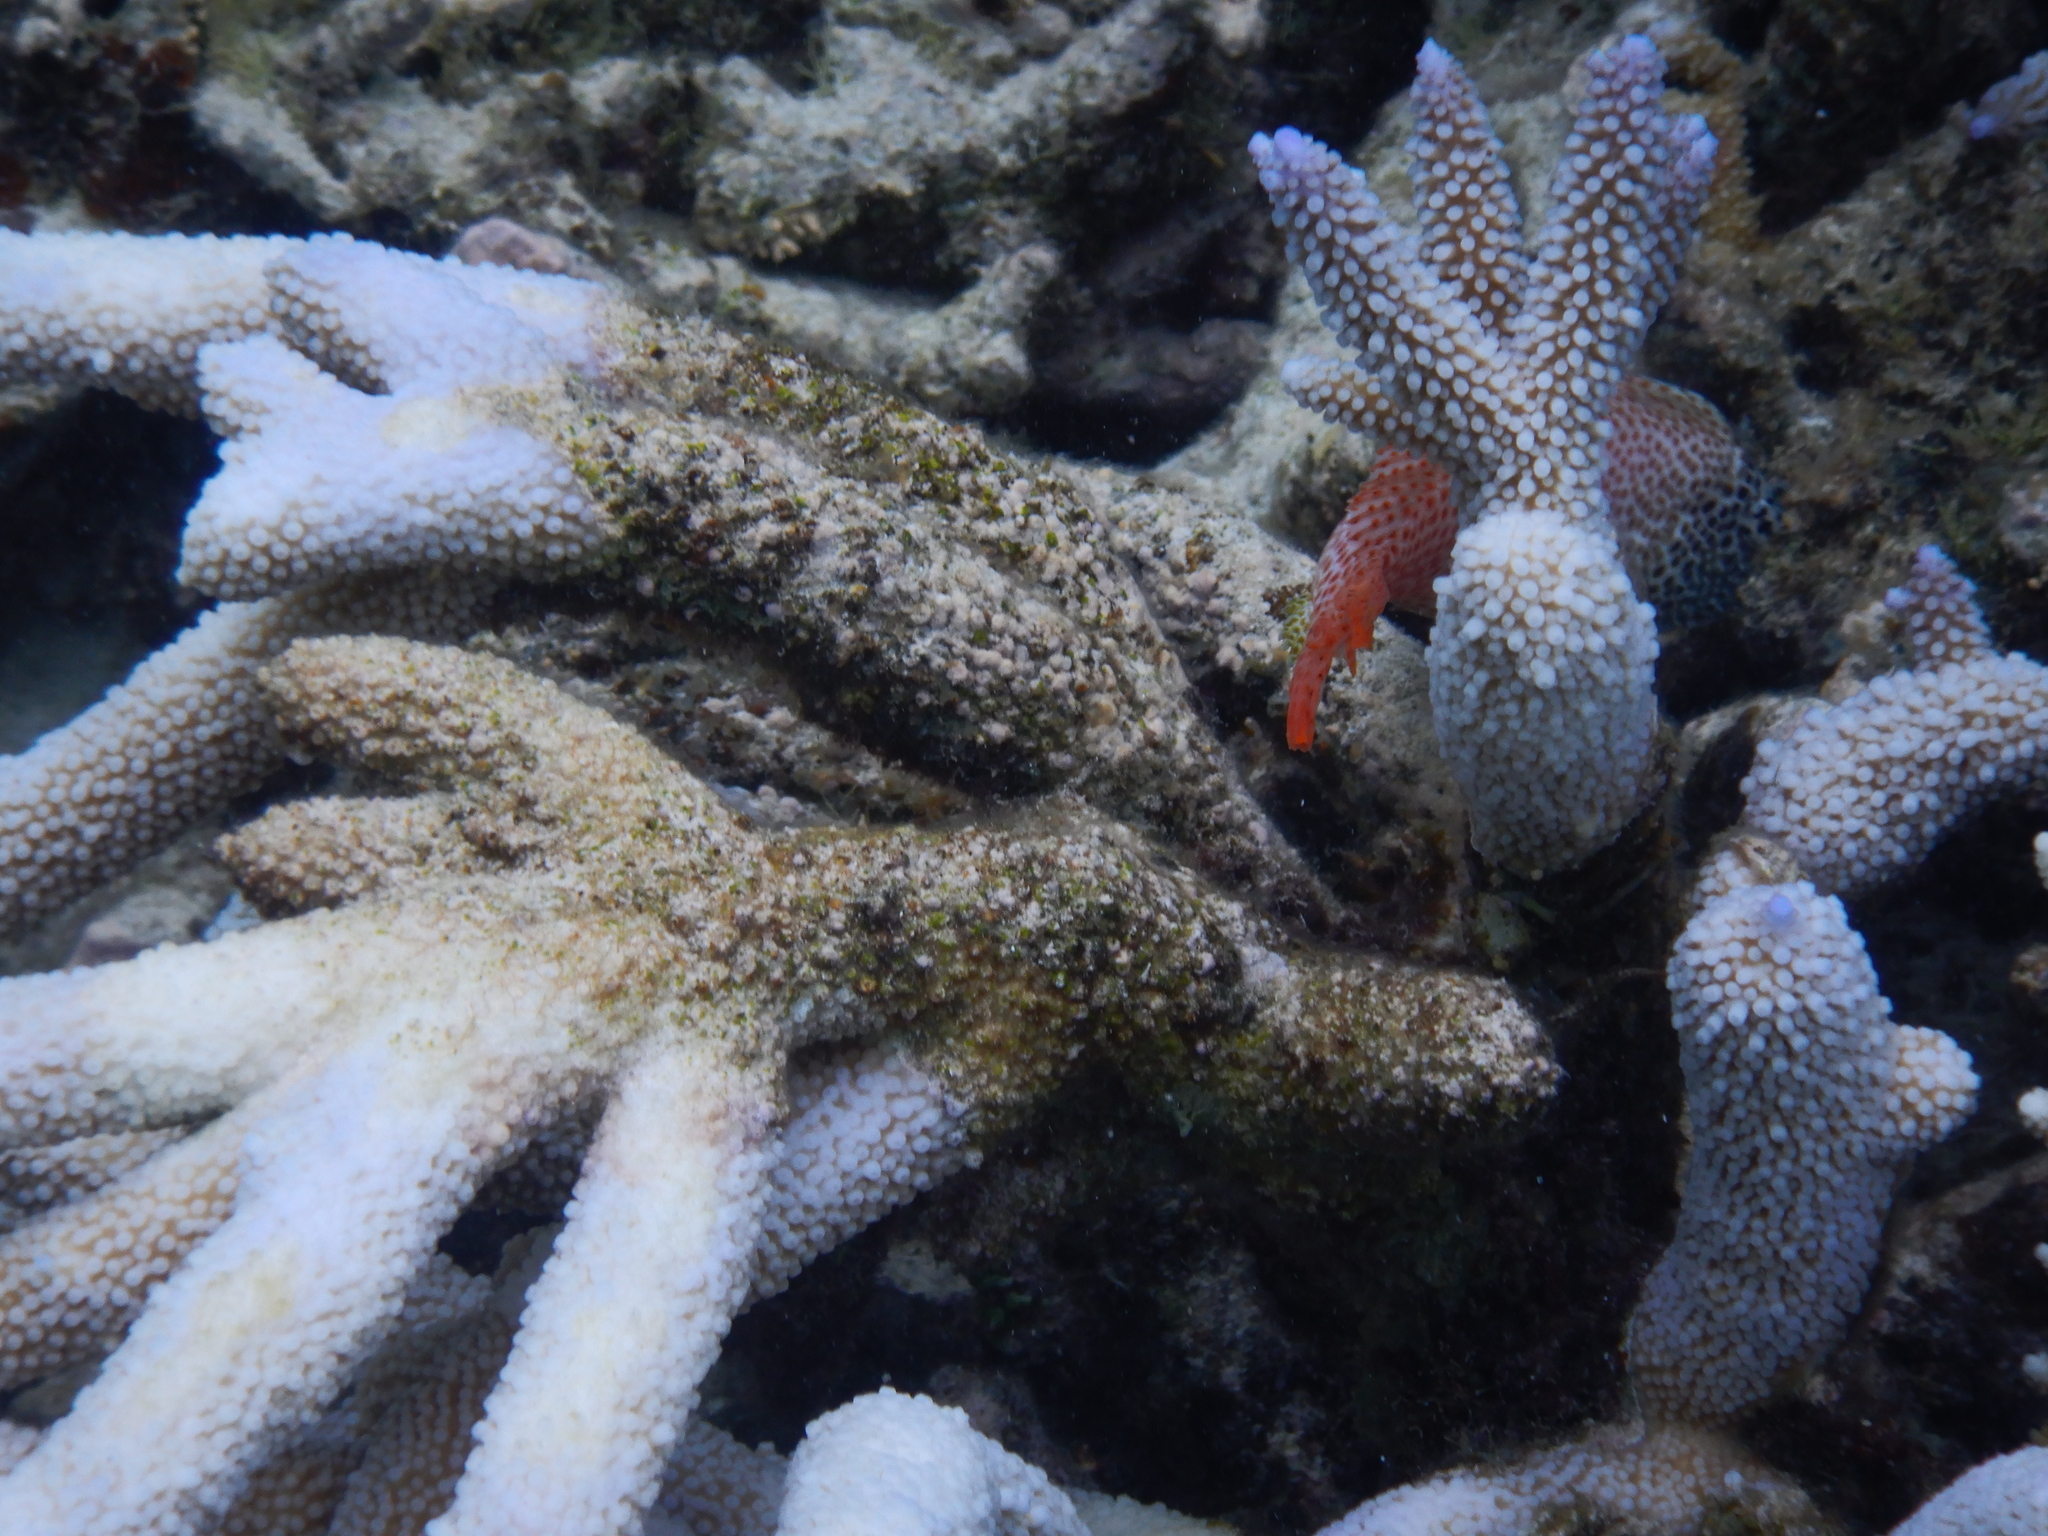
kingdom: Animalia
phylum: Chordata
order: Perciformes
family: Blenniidae
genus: Exallias
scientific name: Exallias brevis
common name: Leopard blenny
